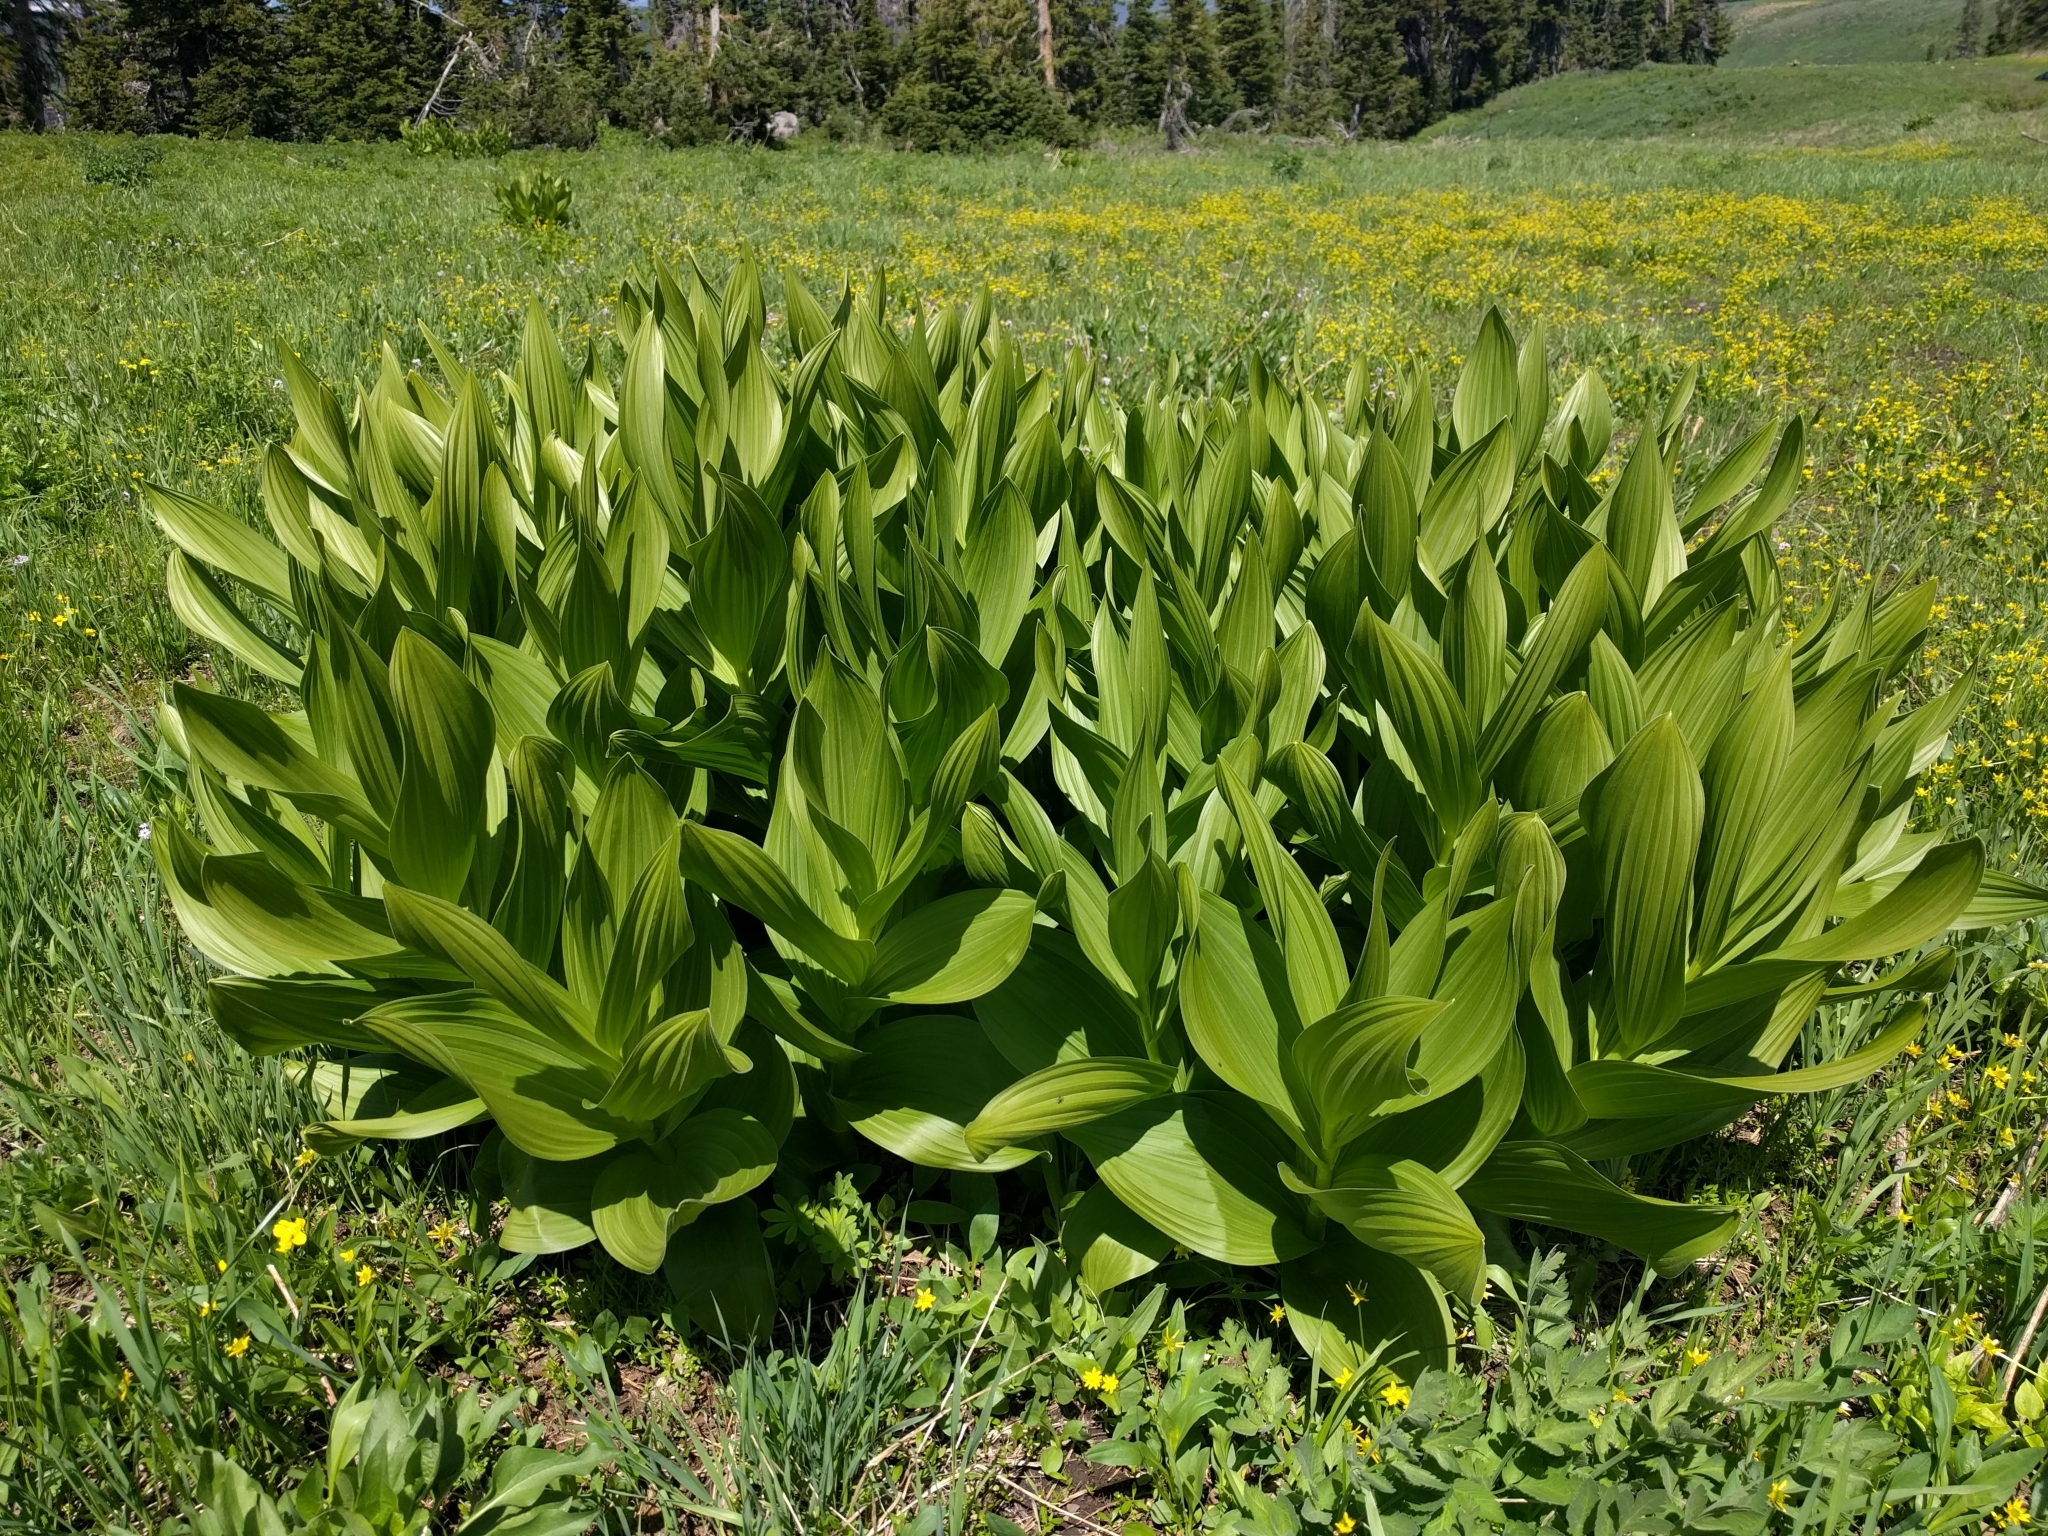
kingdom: Plantae
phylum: Tracheophyta
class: Liliopsida
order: Liliales
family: Melanthiaceae
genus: Veratrum
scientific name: Veratrum californicum
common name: California veratrum
